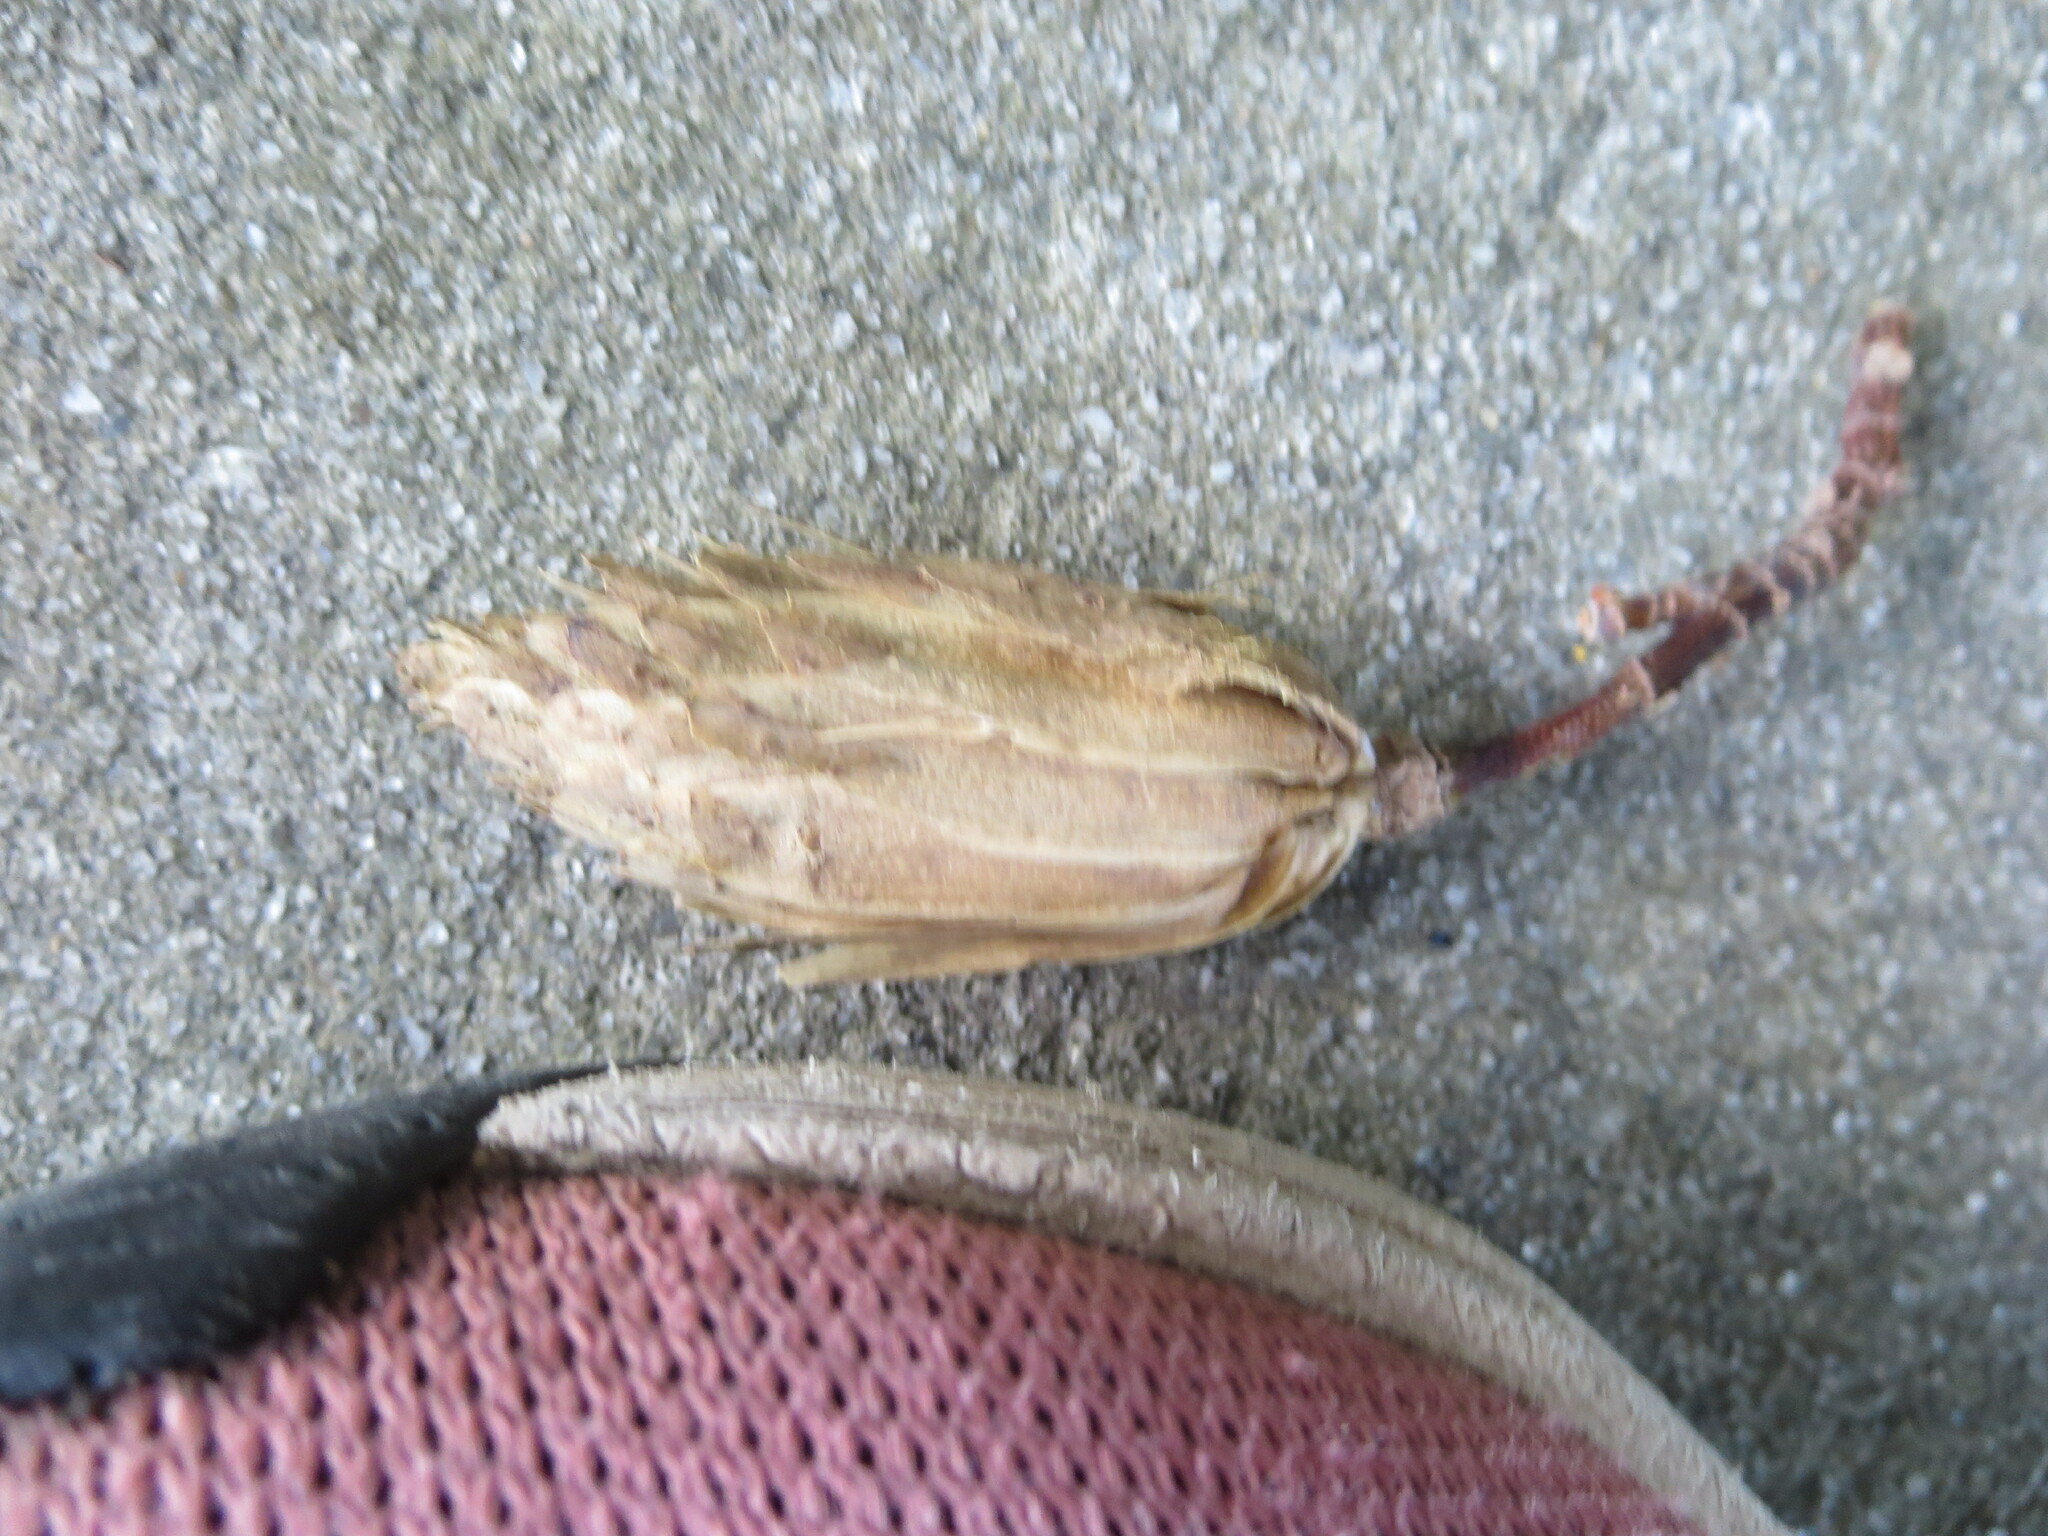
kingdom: Plantae
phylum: Tracheophyta
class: Magnoliopsida
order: Magnoliales
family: Magnoliaceae
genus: Liriodendron
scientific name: Liriodendron tulipifera
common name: Tulip tree
